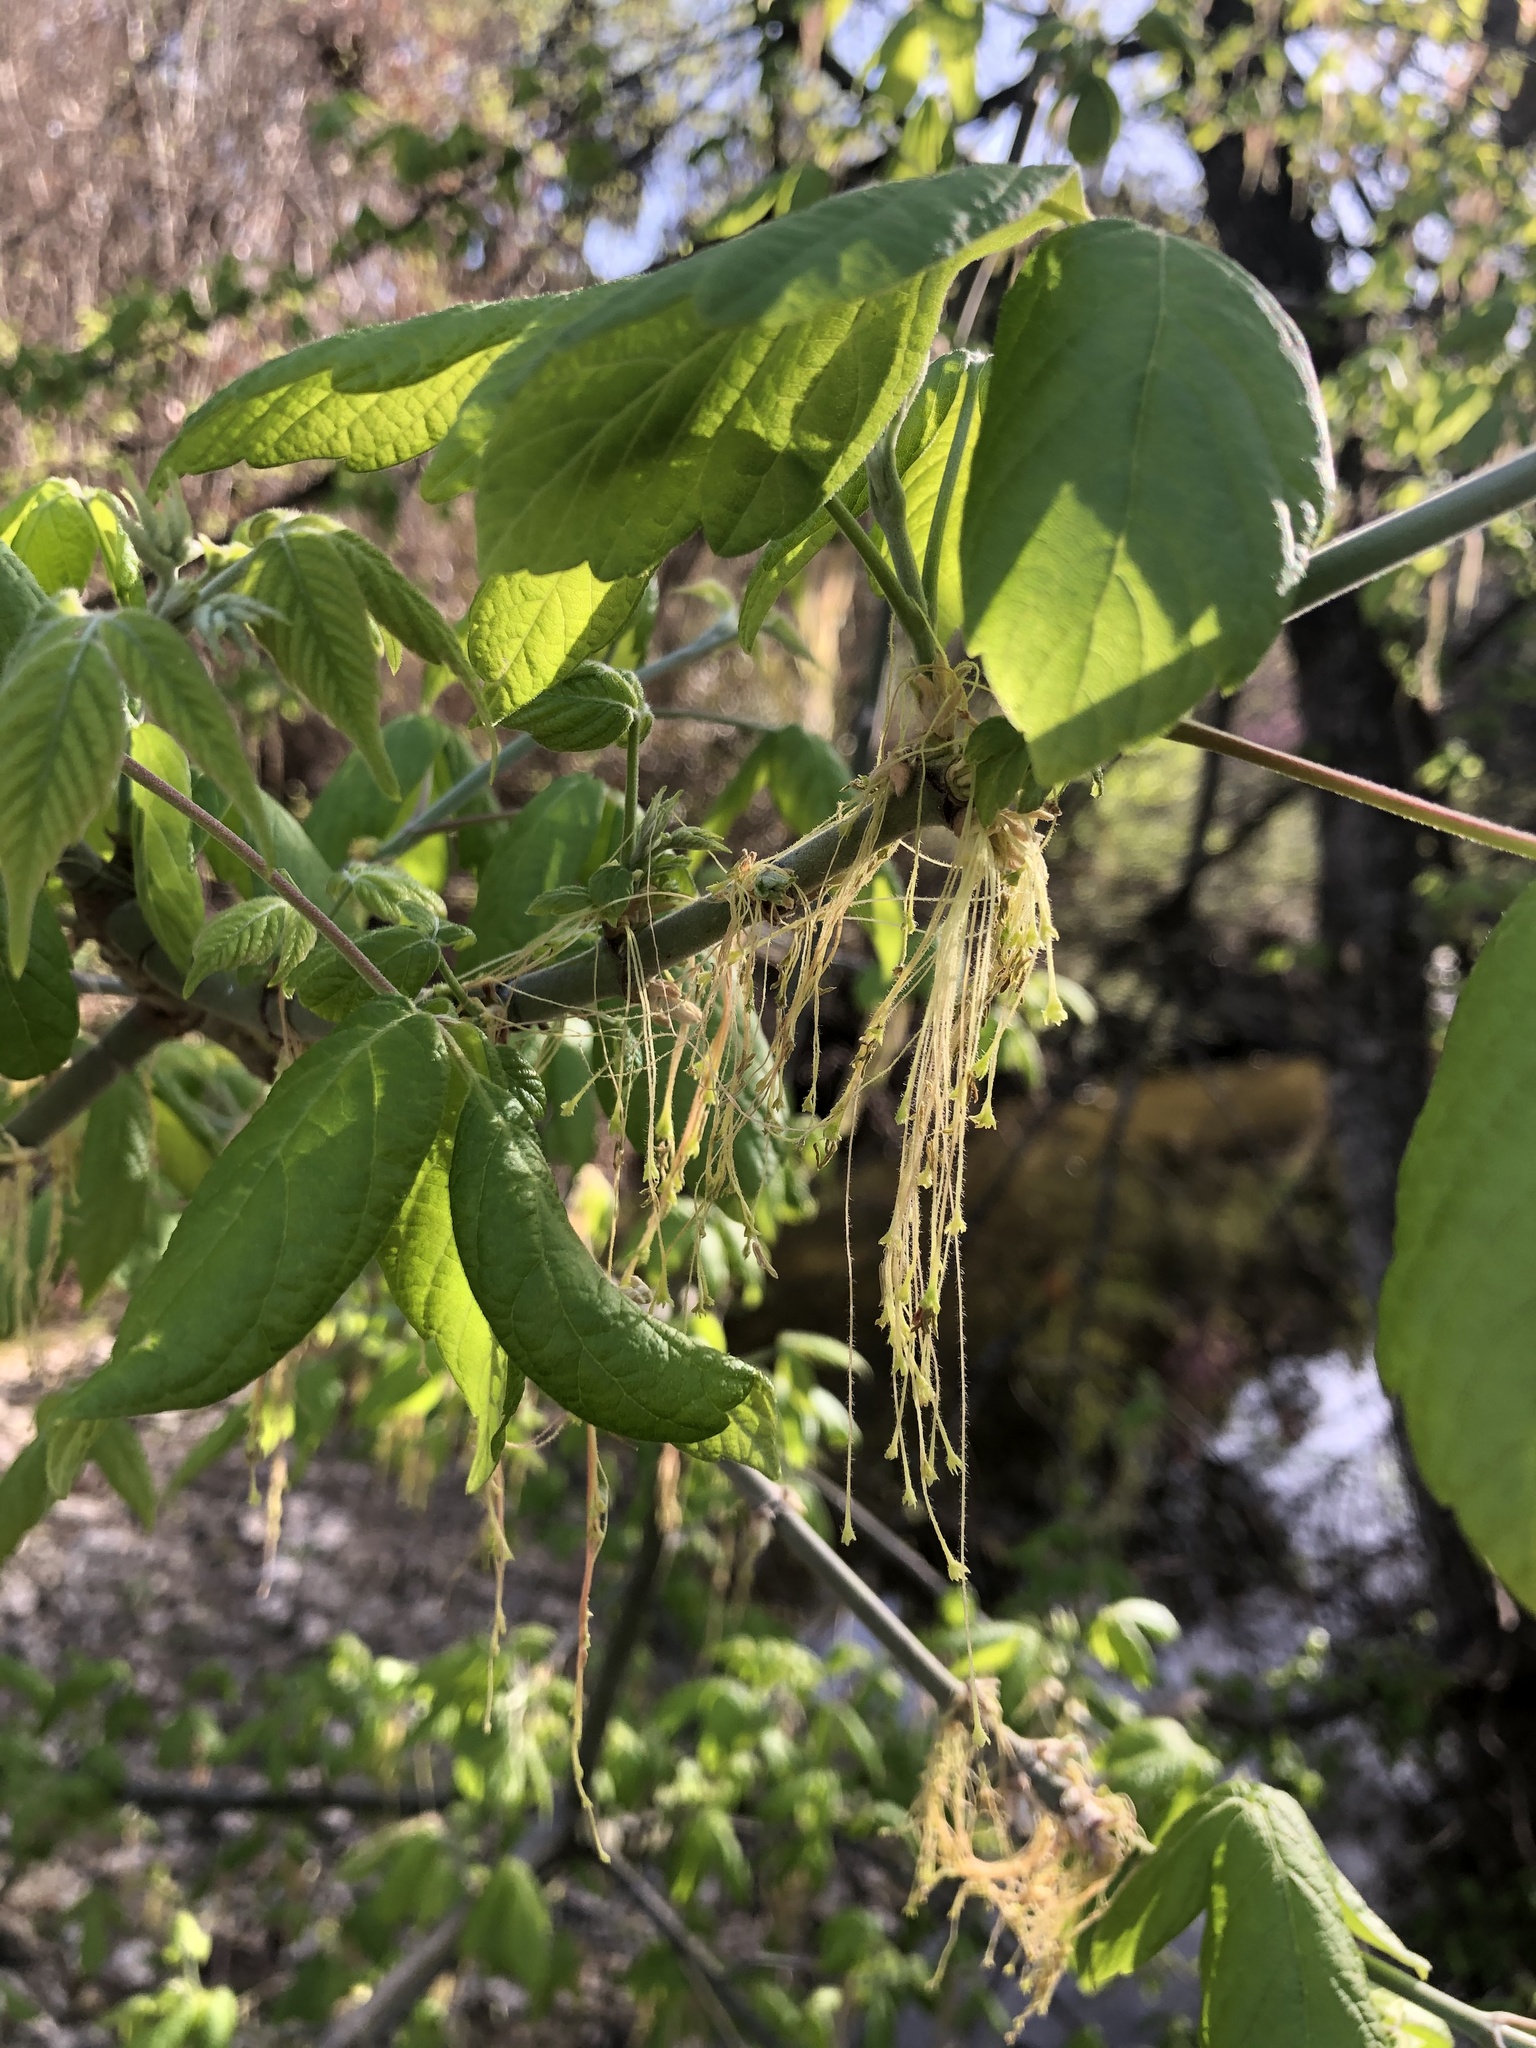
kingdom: Plantae
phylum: Tracheophyta
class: Magnoliopsida
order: Sapindales
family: Sapindaceae
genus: Acer
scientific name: Acer negundo
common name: Ashleaf maple
